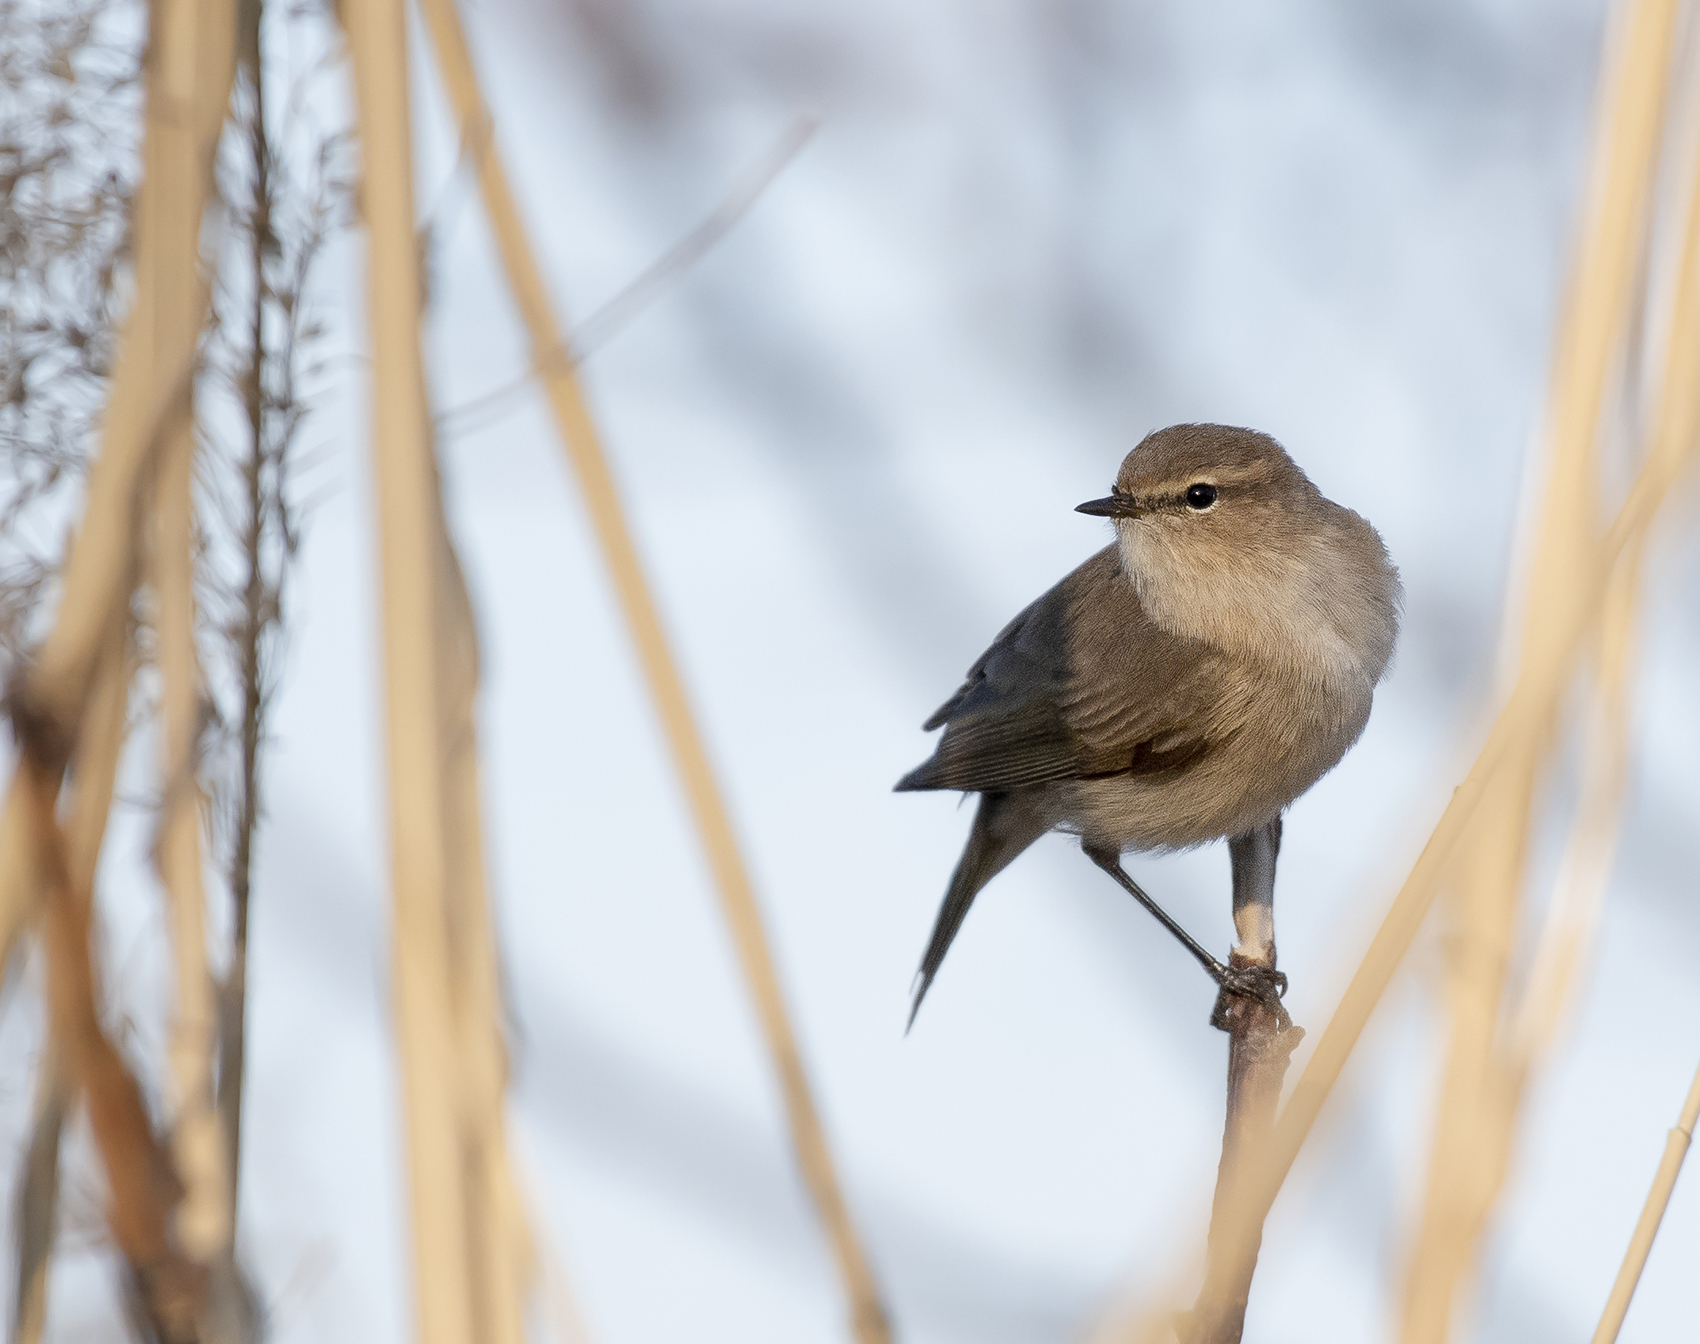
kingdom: Animalia
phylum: Chordata
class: Aves
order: Passeriformes
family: Phylloscopidae
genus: Phylloscopus
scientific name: Phylloscopus collybita
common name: Common chiffchaff
